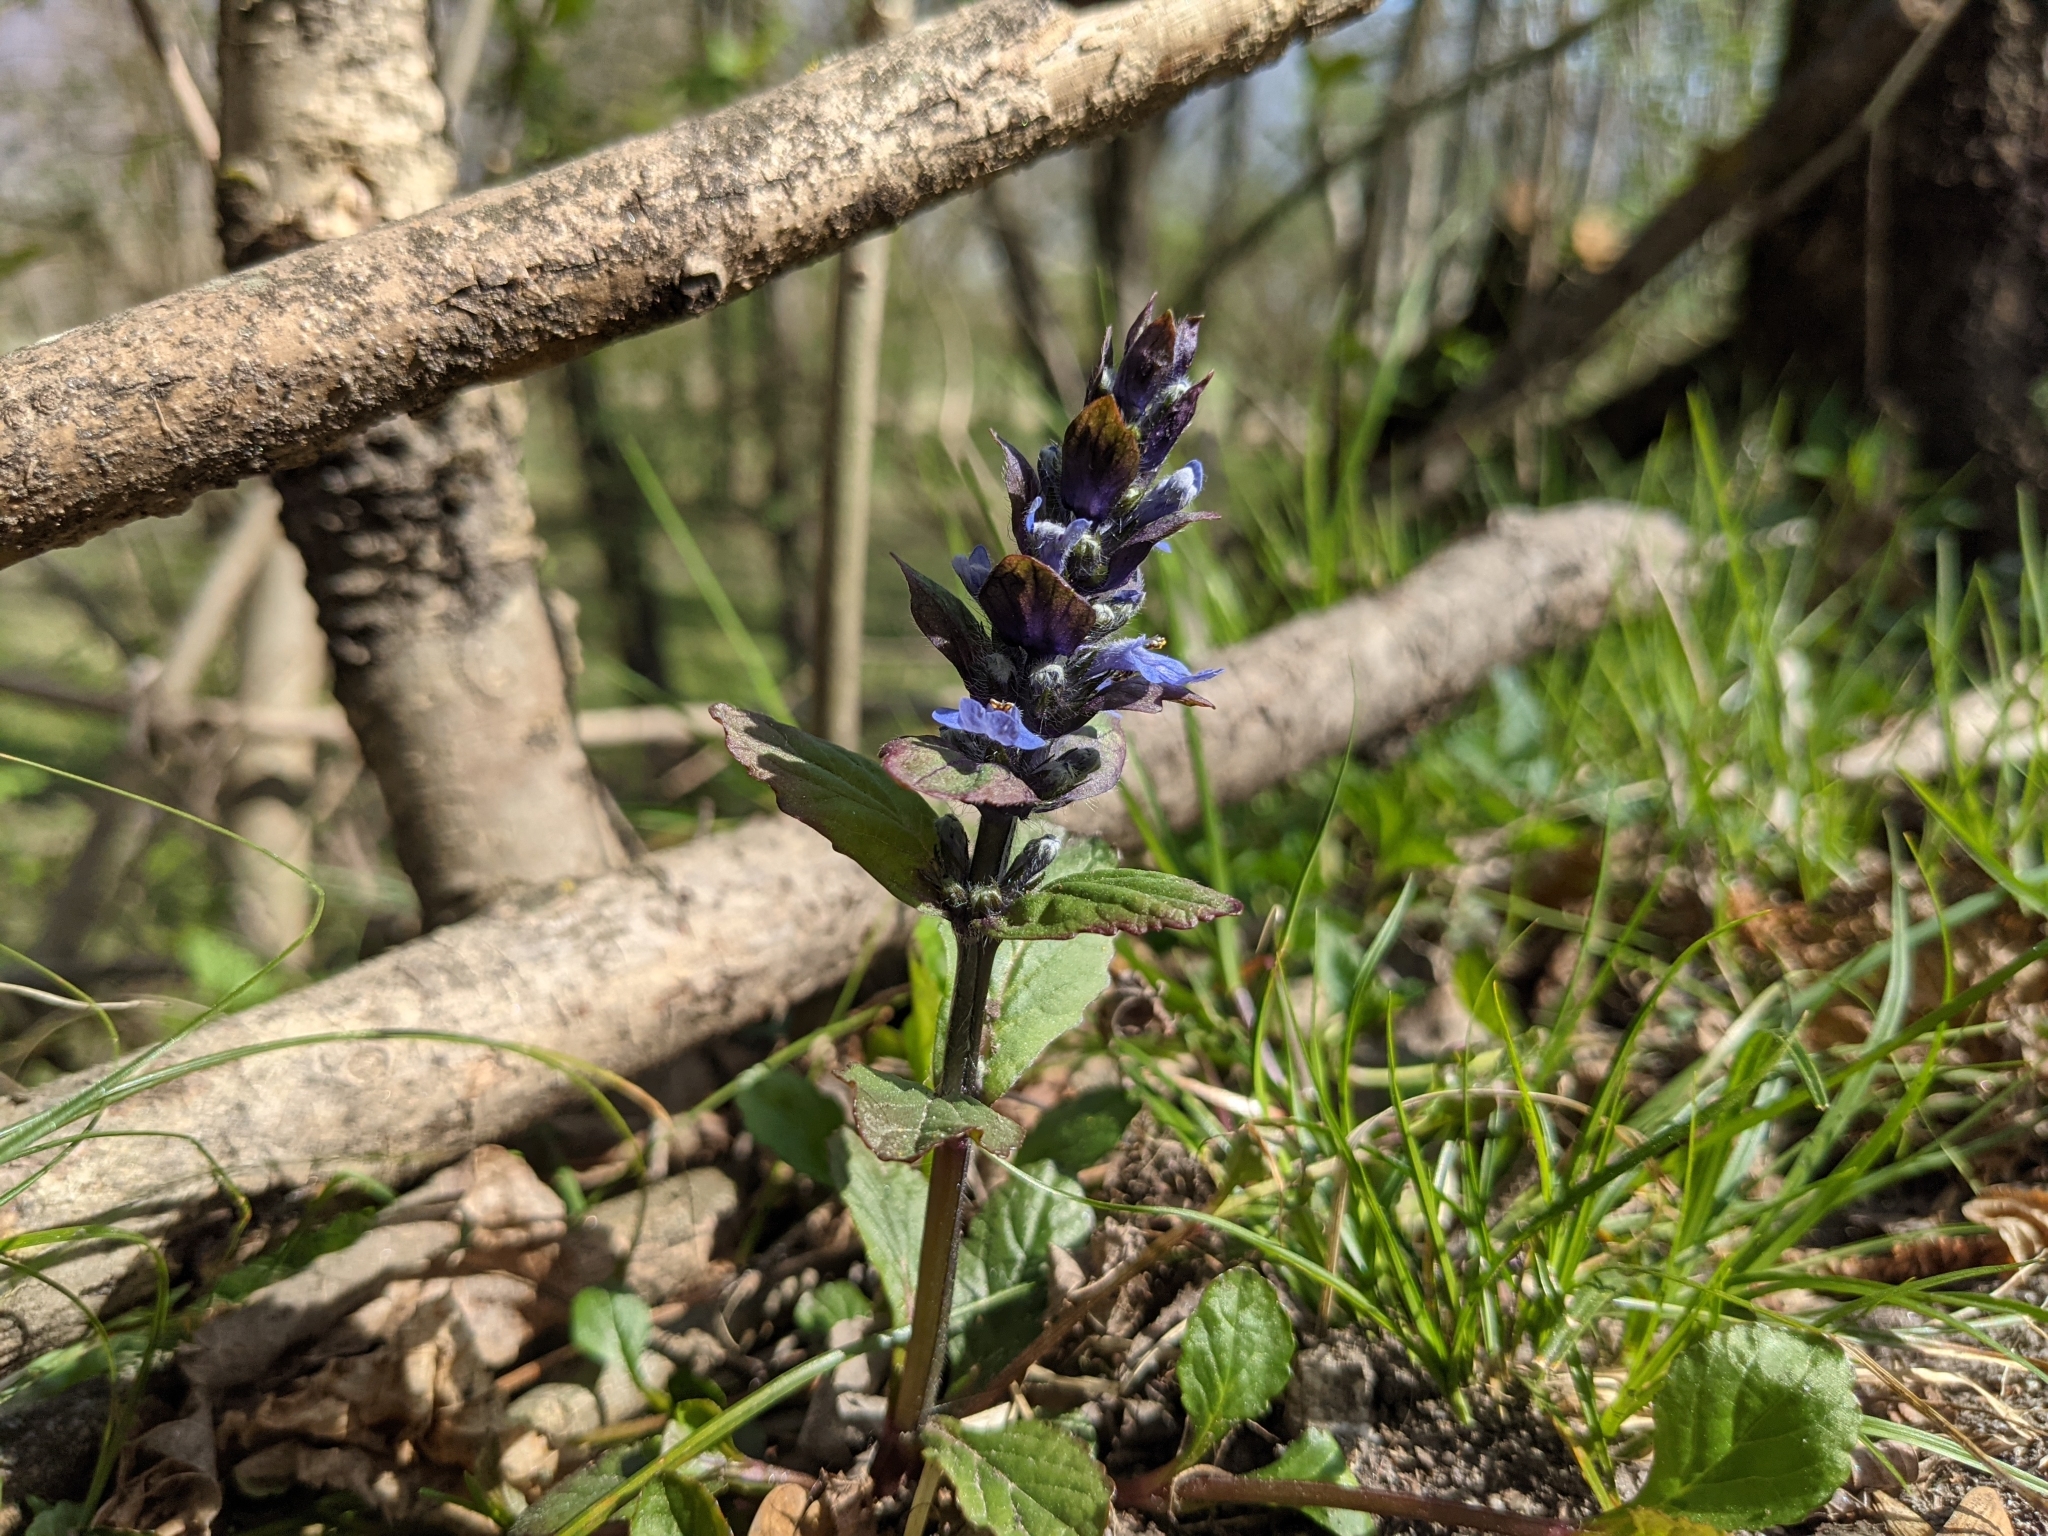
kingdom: Plantae
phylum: Tracheophyta
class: Magnoliopsida
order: Lamiales
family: Lamiaceae
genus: Ajuga
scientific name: Ajuga reptans
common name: Bugle
